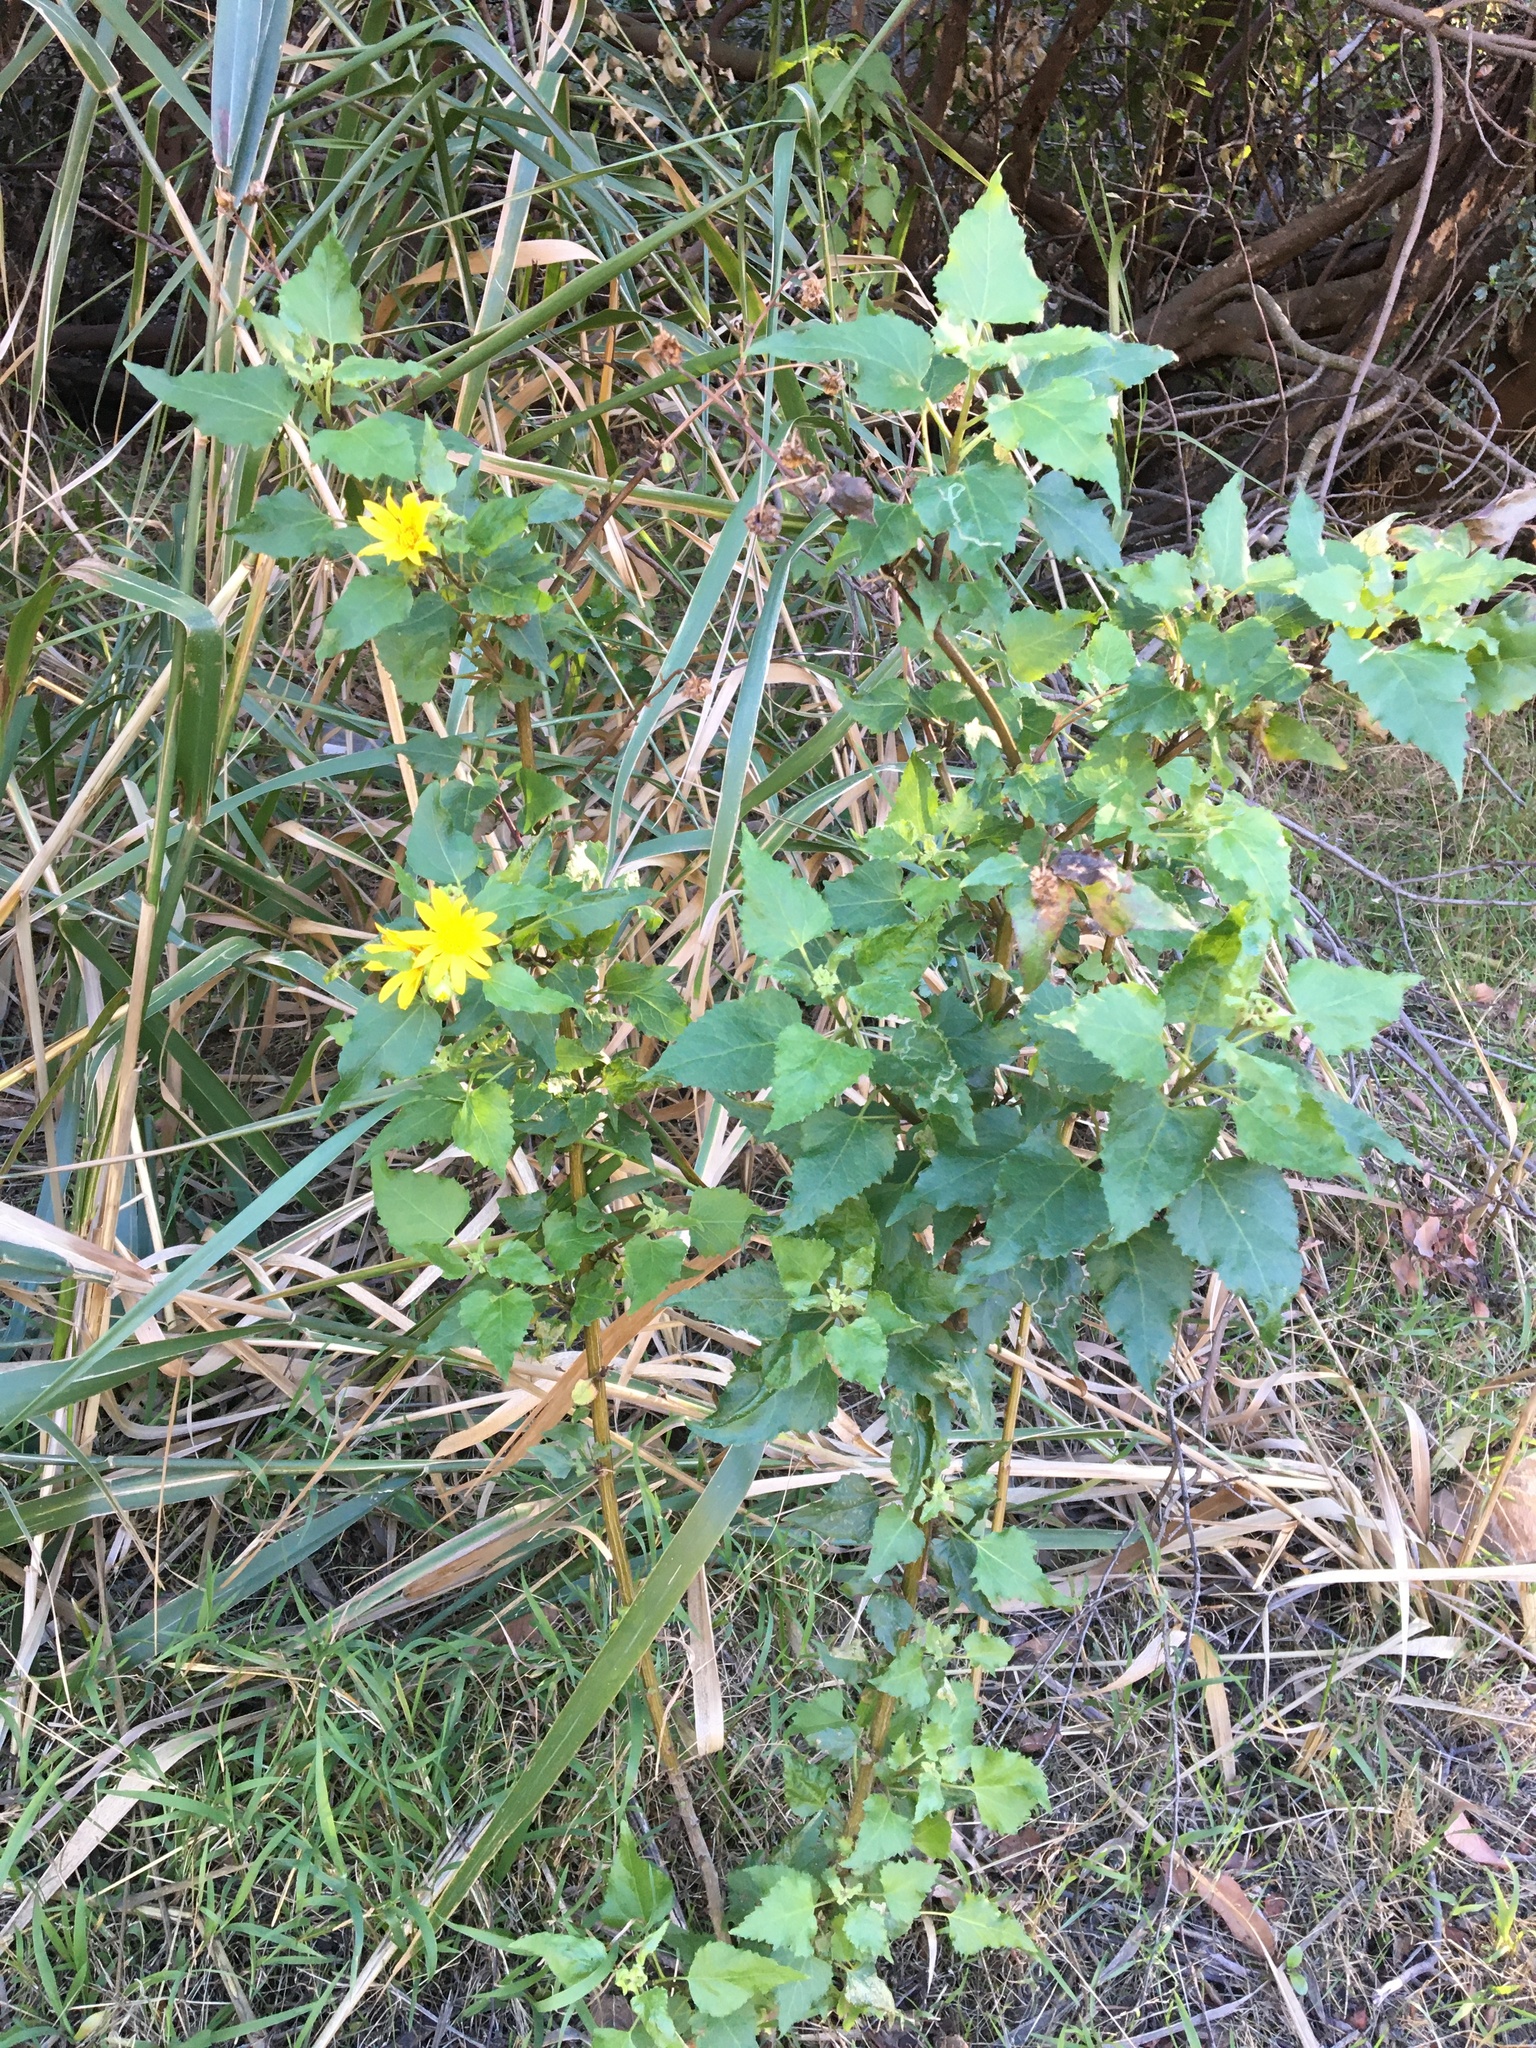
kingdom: Plantae
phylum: Tracheophyta
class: Magnoliopsida
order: Asterales
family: Asteraceae
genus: Venegasia
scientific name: Venegasia carpesioides
